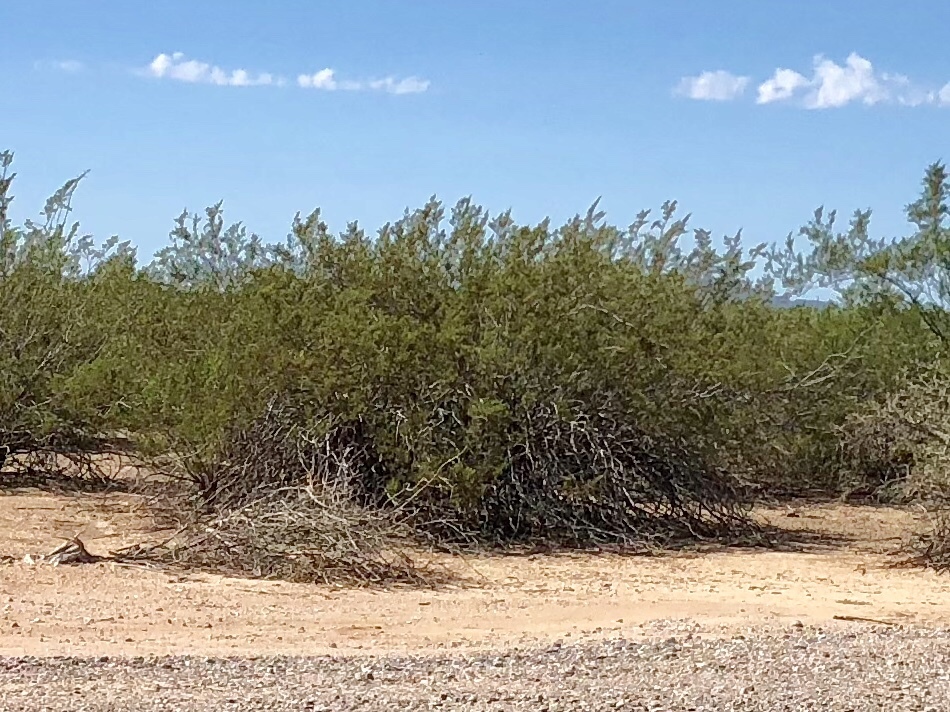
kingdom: Plantae
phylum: Tracheophyta
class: Magnoliopsida
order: Zygophyllales
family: Zygophyllaceae
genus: Larrea
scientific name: Larrea tridentata
